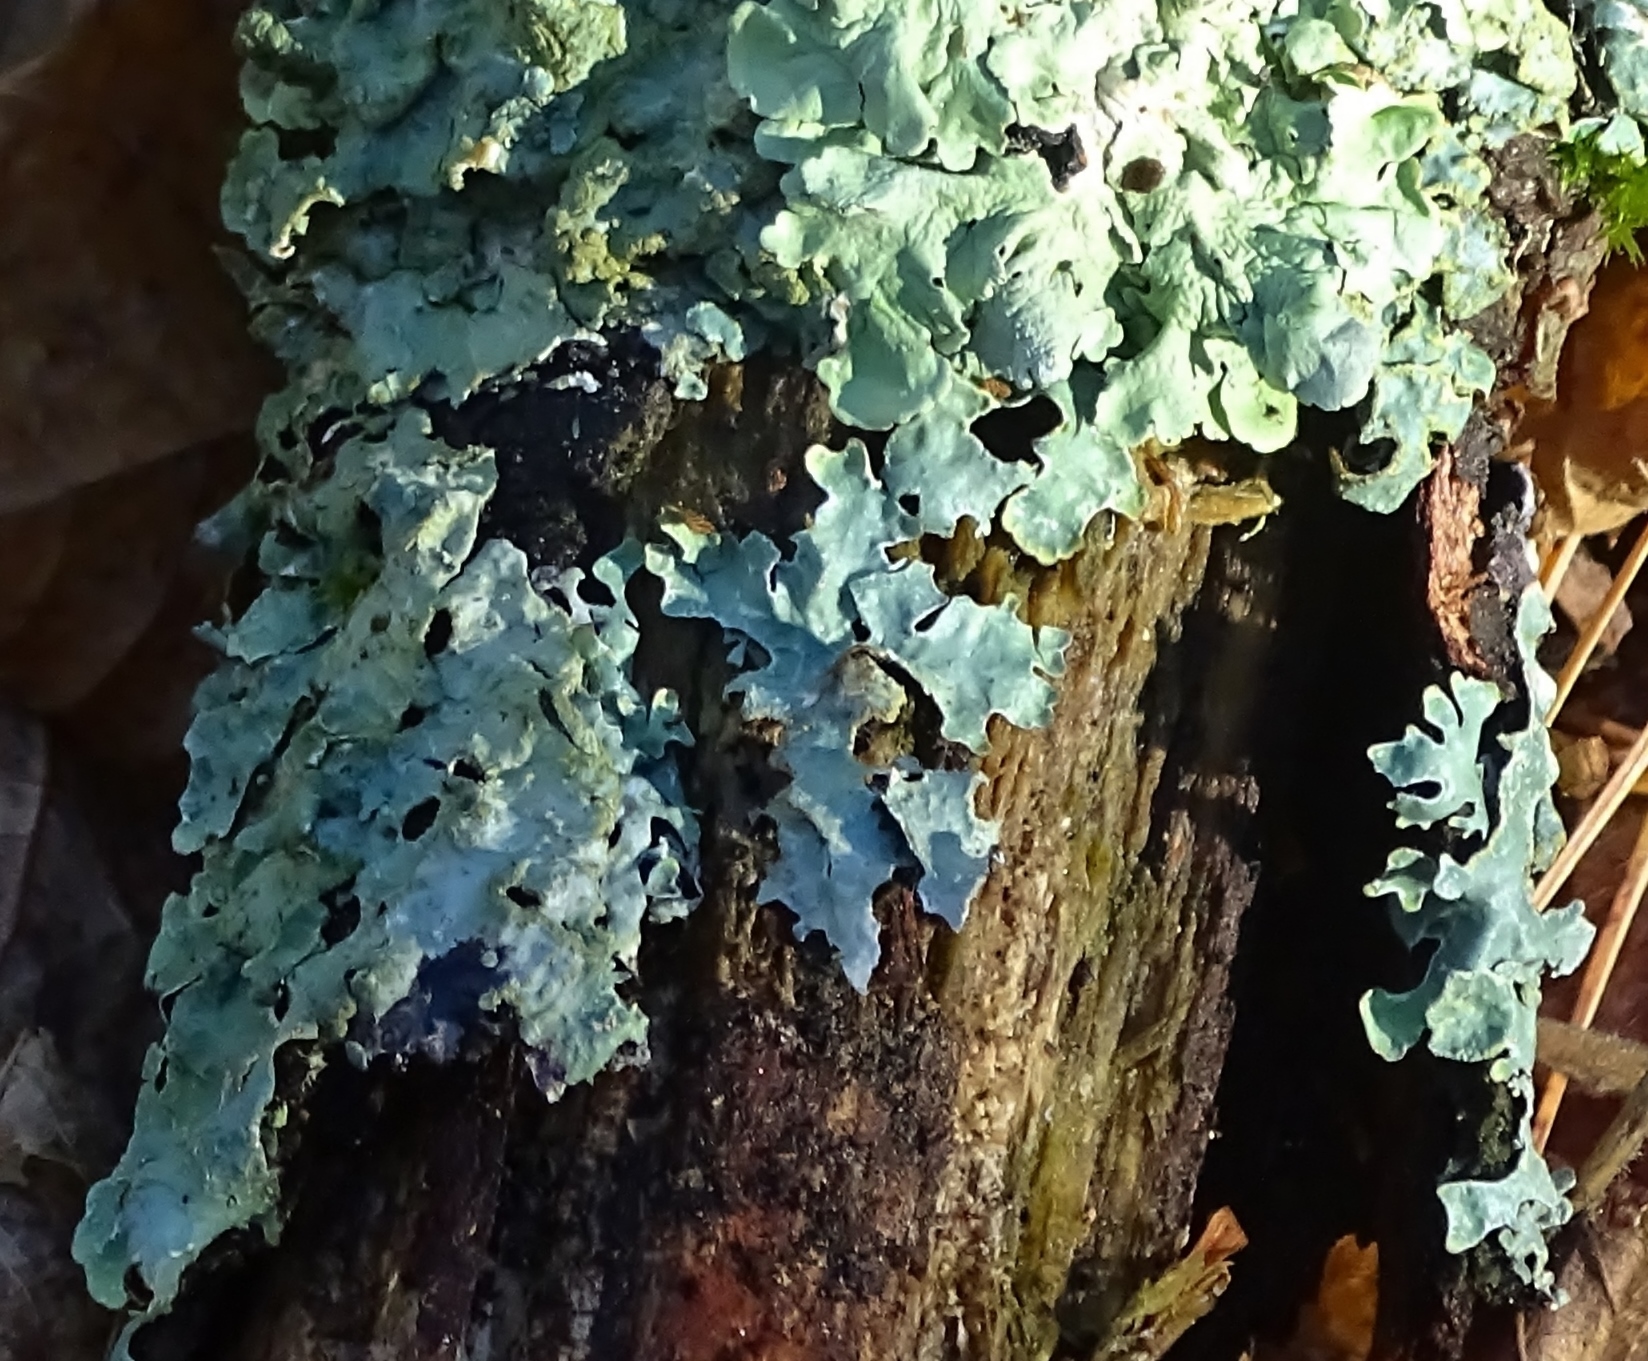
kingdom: Fungi
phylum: Ascomycota
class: Lecanoromycetes
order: Lecanorales
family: Parmeliaceae
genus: Parmelia
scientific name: Parmelia sulcata
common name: Netted shield lichen
